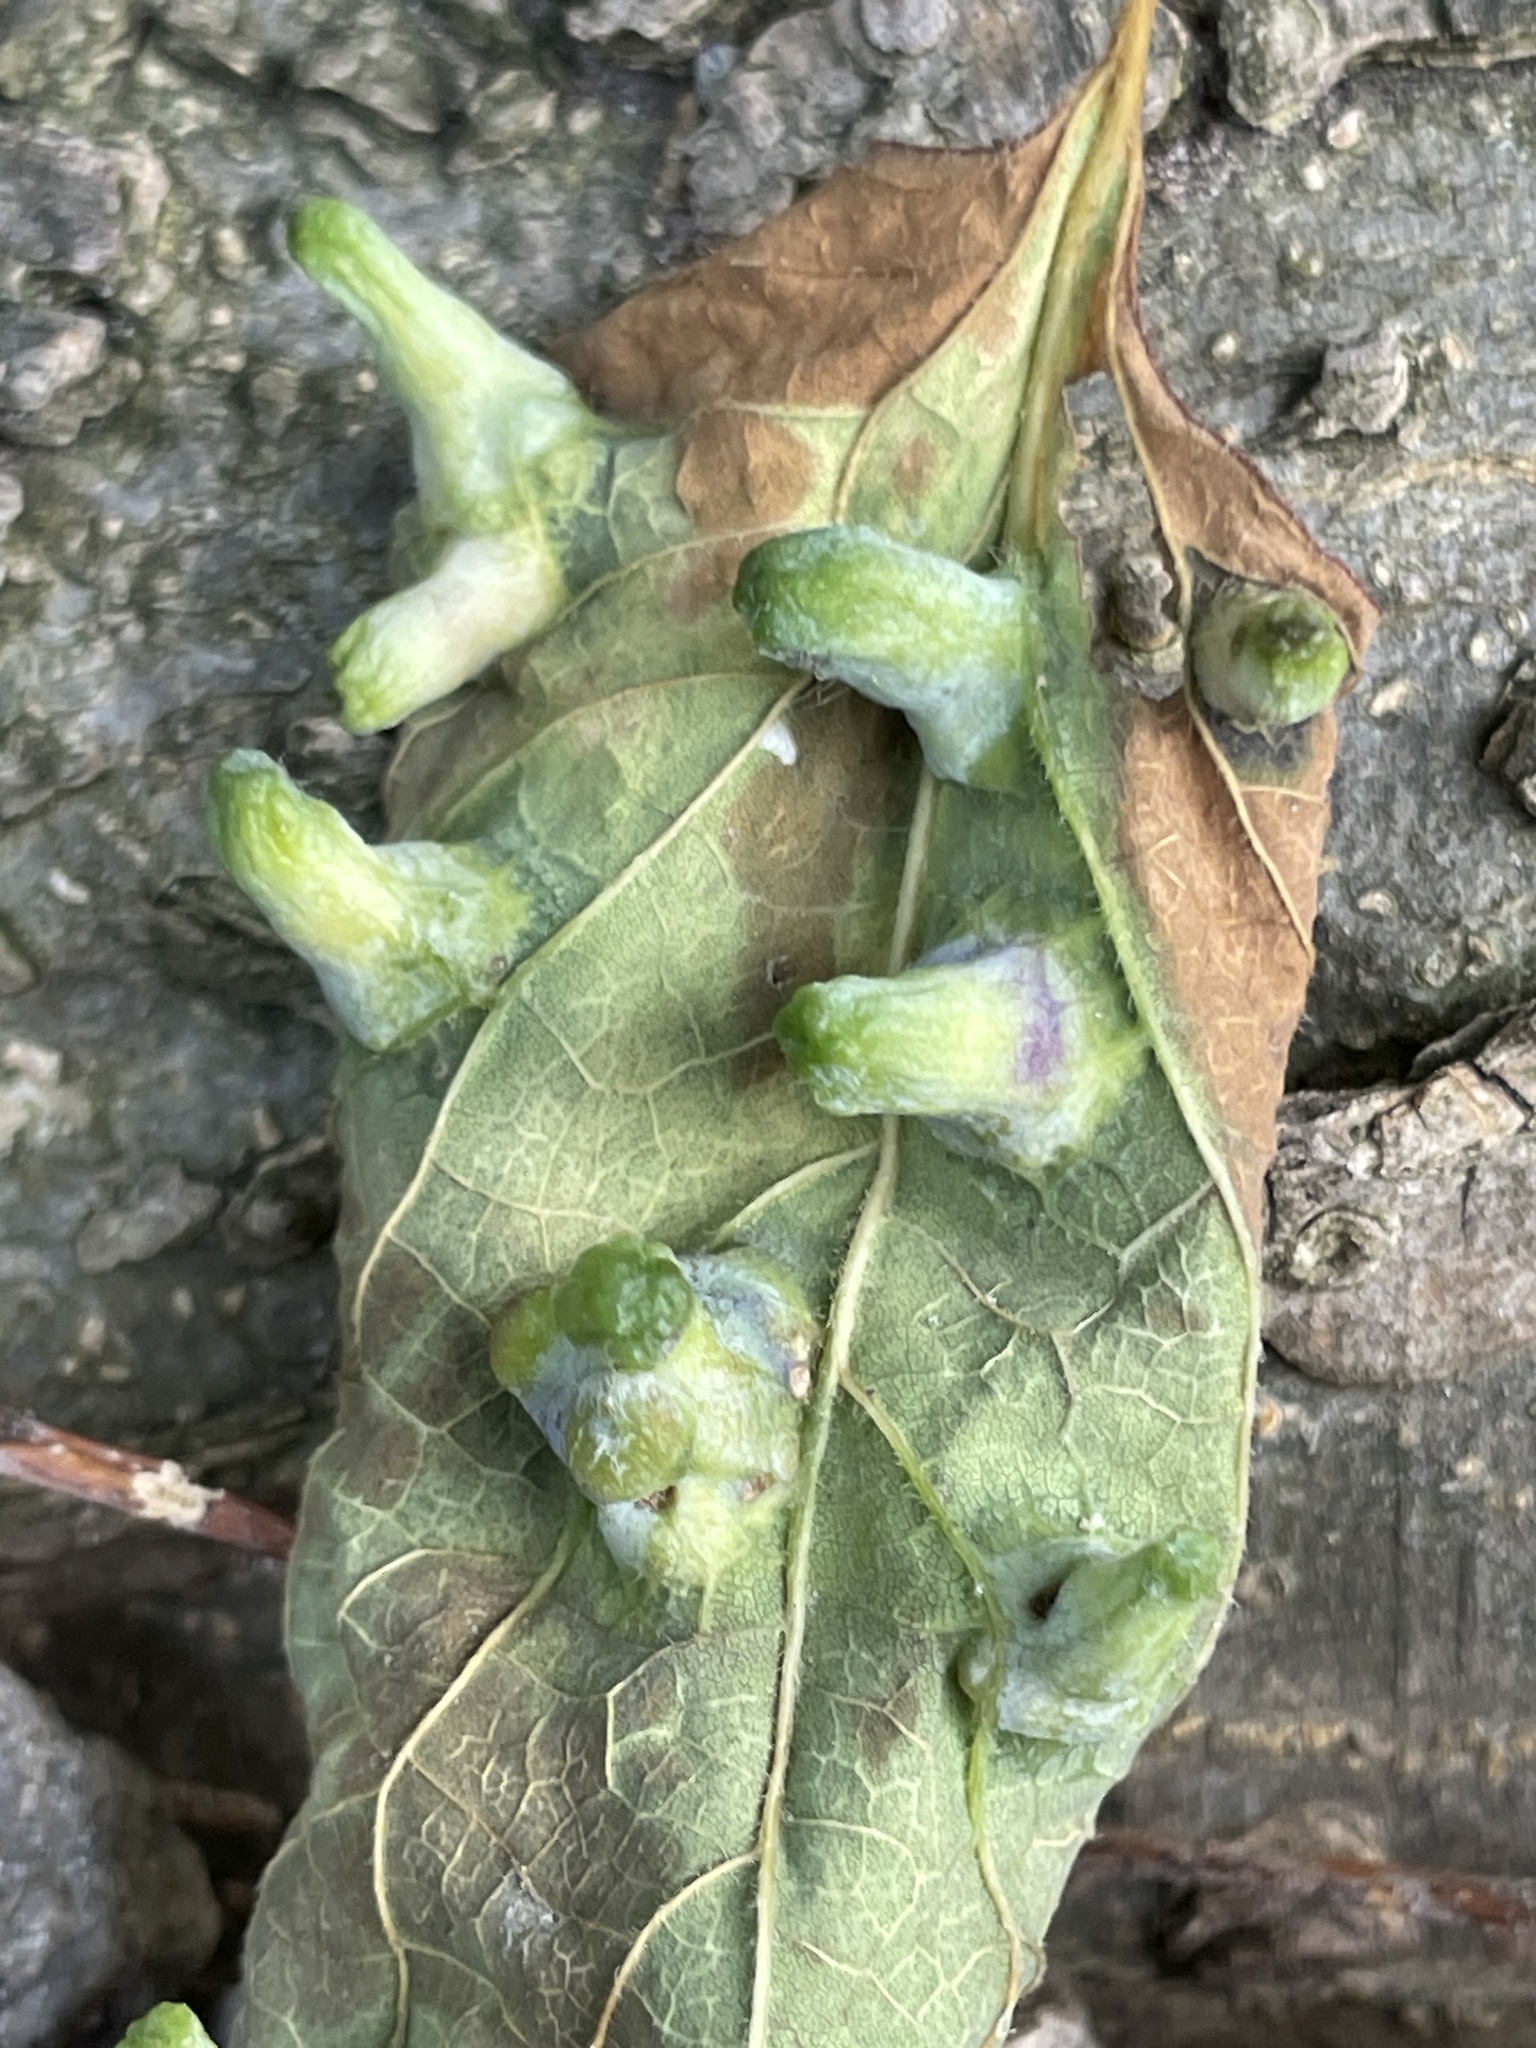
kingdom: Animalia
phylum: Arthropoda
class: Insecta
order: Hemiptera
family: Aphalaridae
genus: Pachypsylla
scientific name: Pachypsylla celtidismamma
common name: Hackberry nipplegall psyllid
